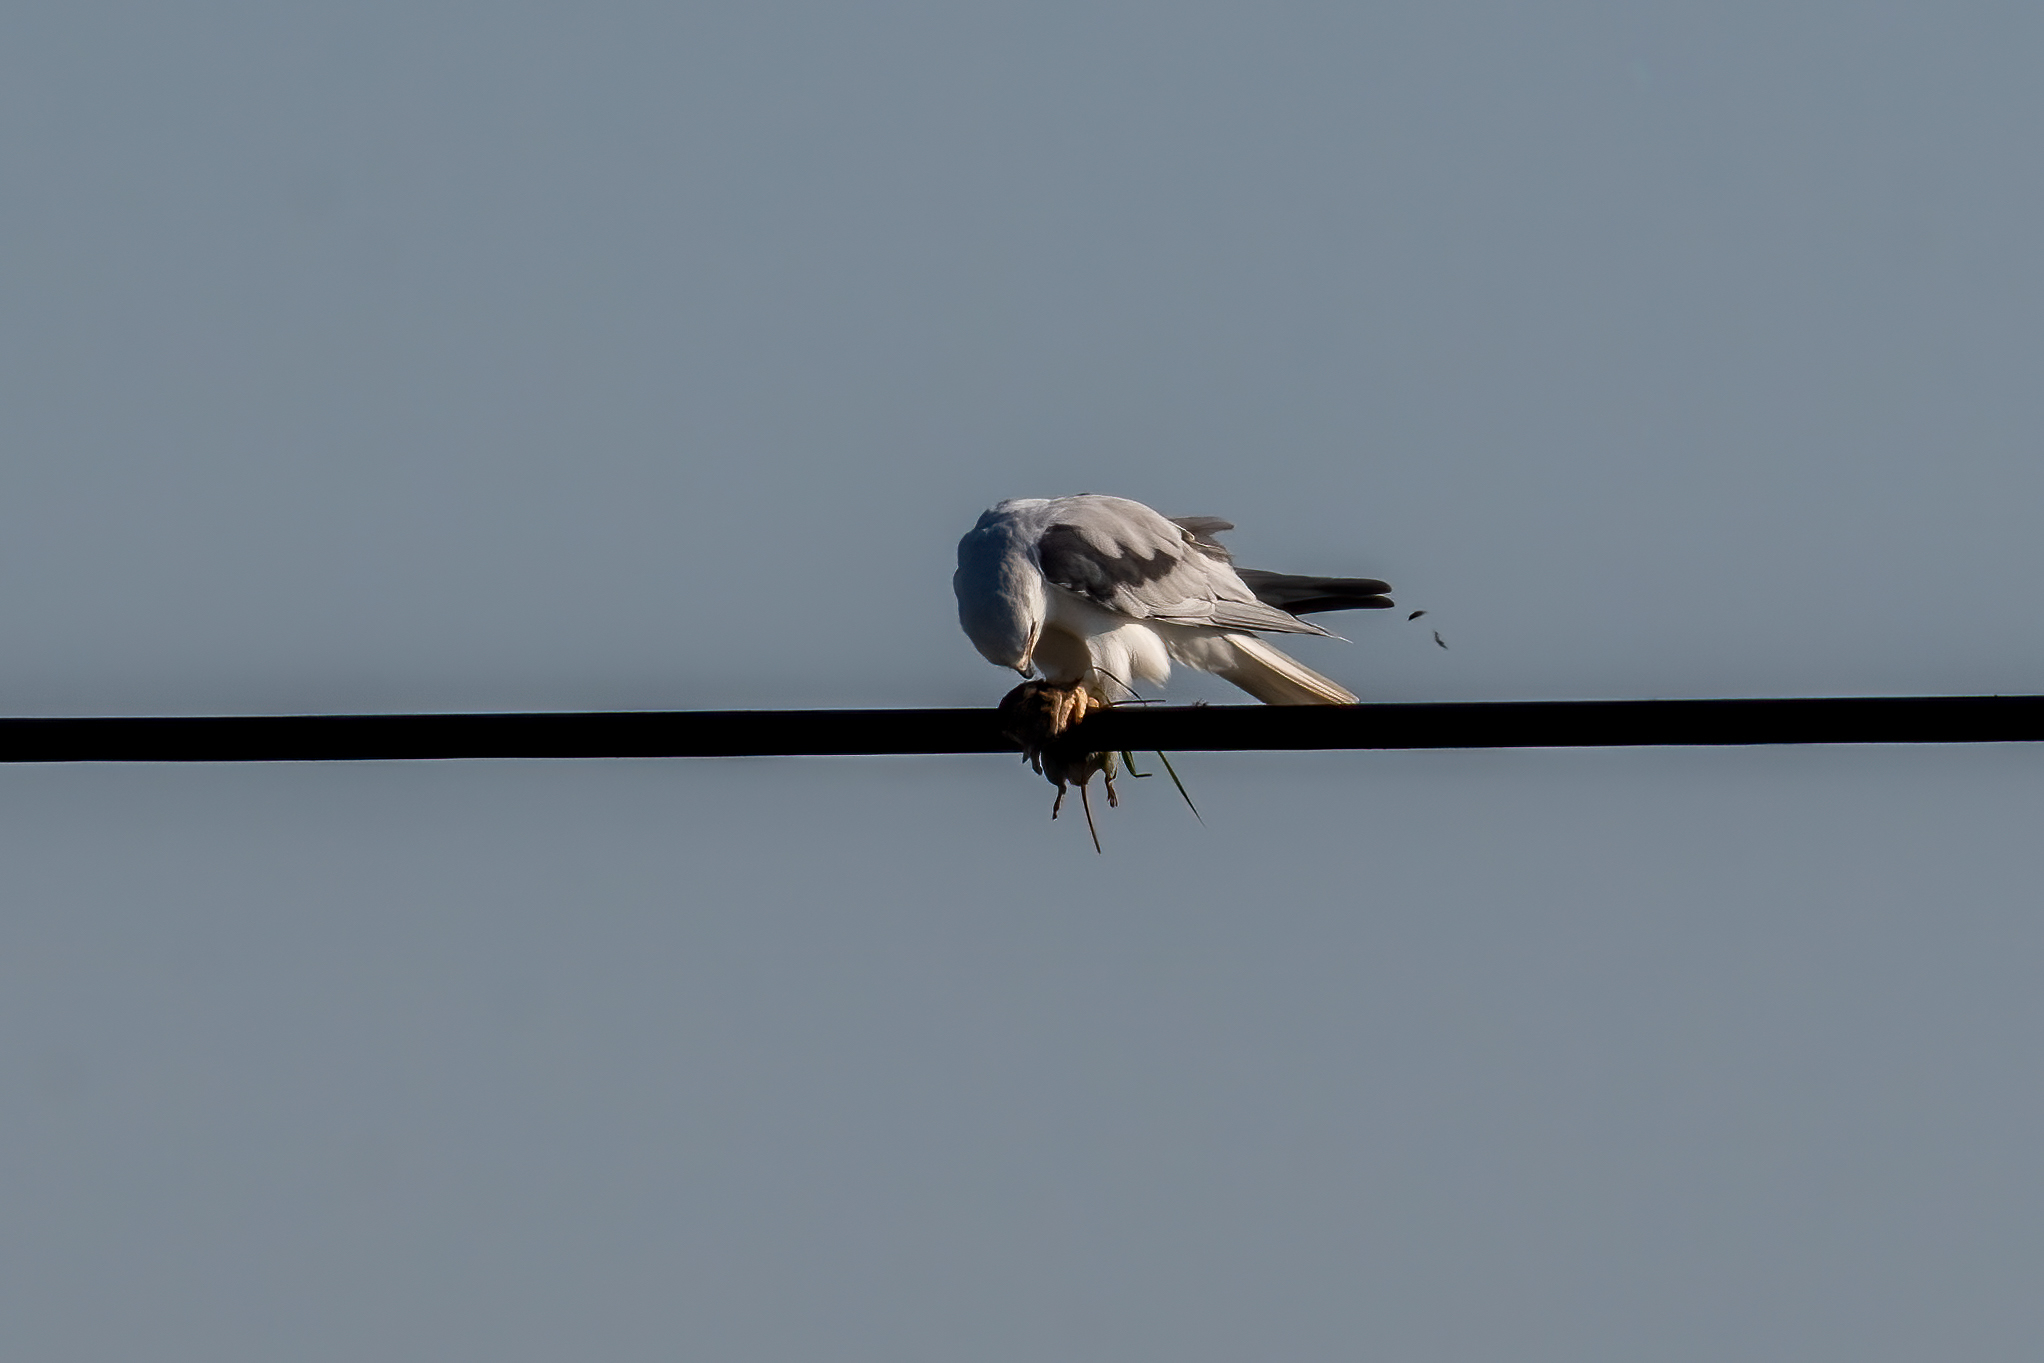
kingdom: Animalia
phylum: Chordata
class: Aves
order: Accipitriformes
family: Accipitridae
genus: Elanus
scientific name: Elanus leucurus
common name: White-tailed kite
